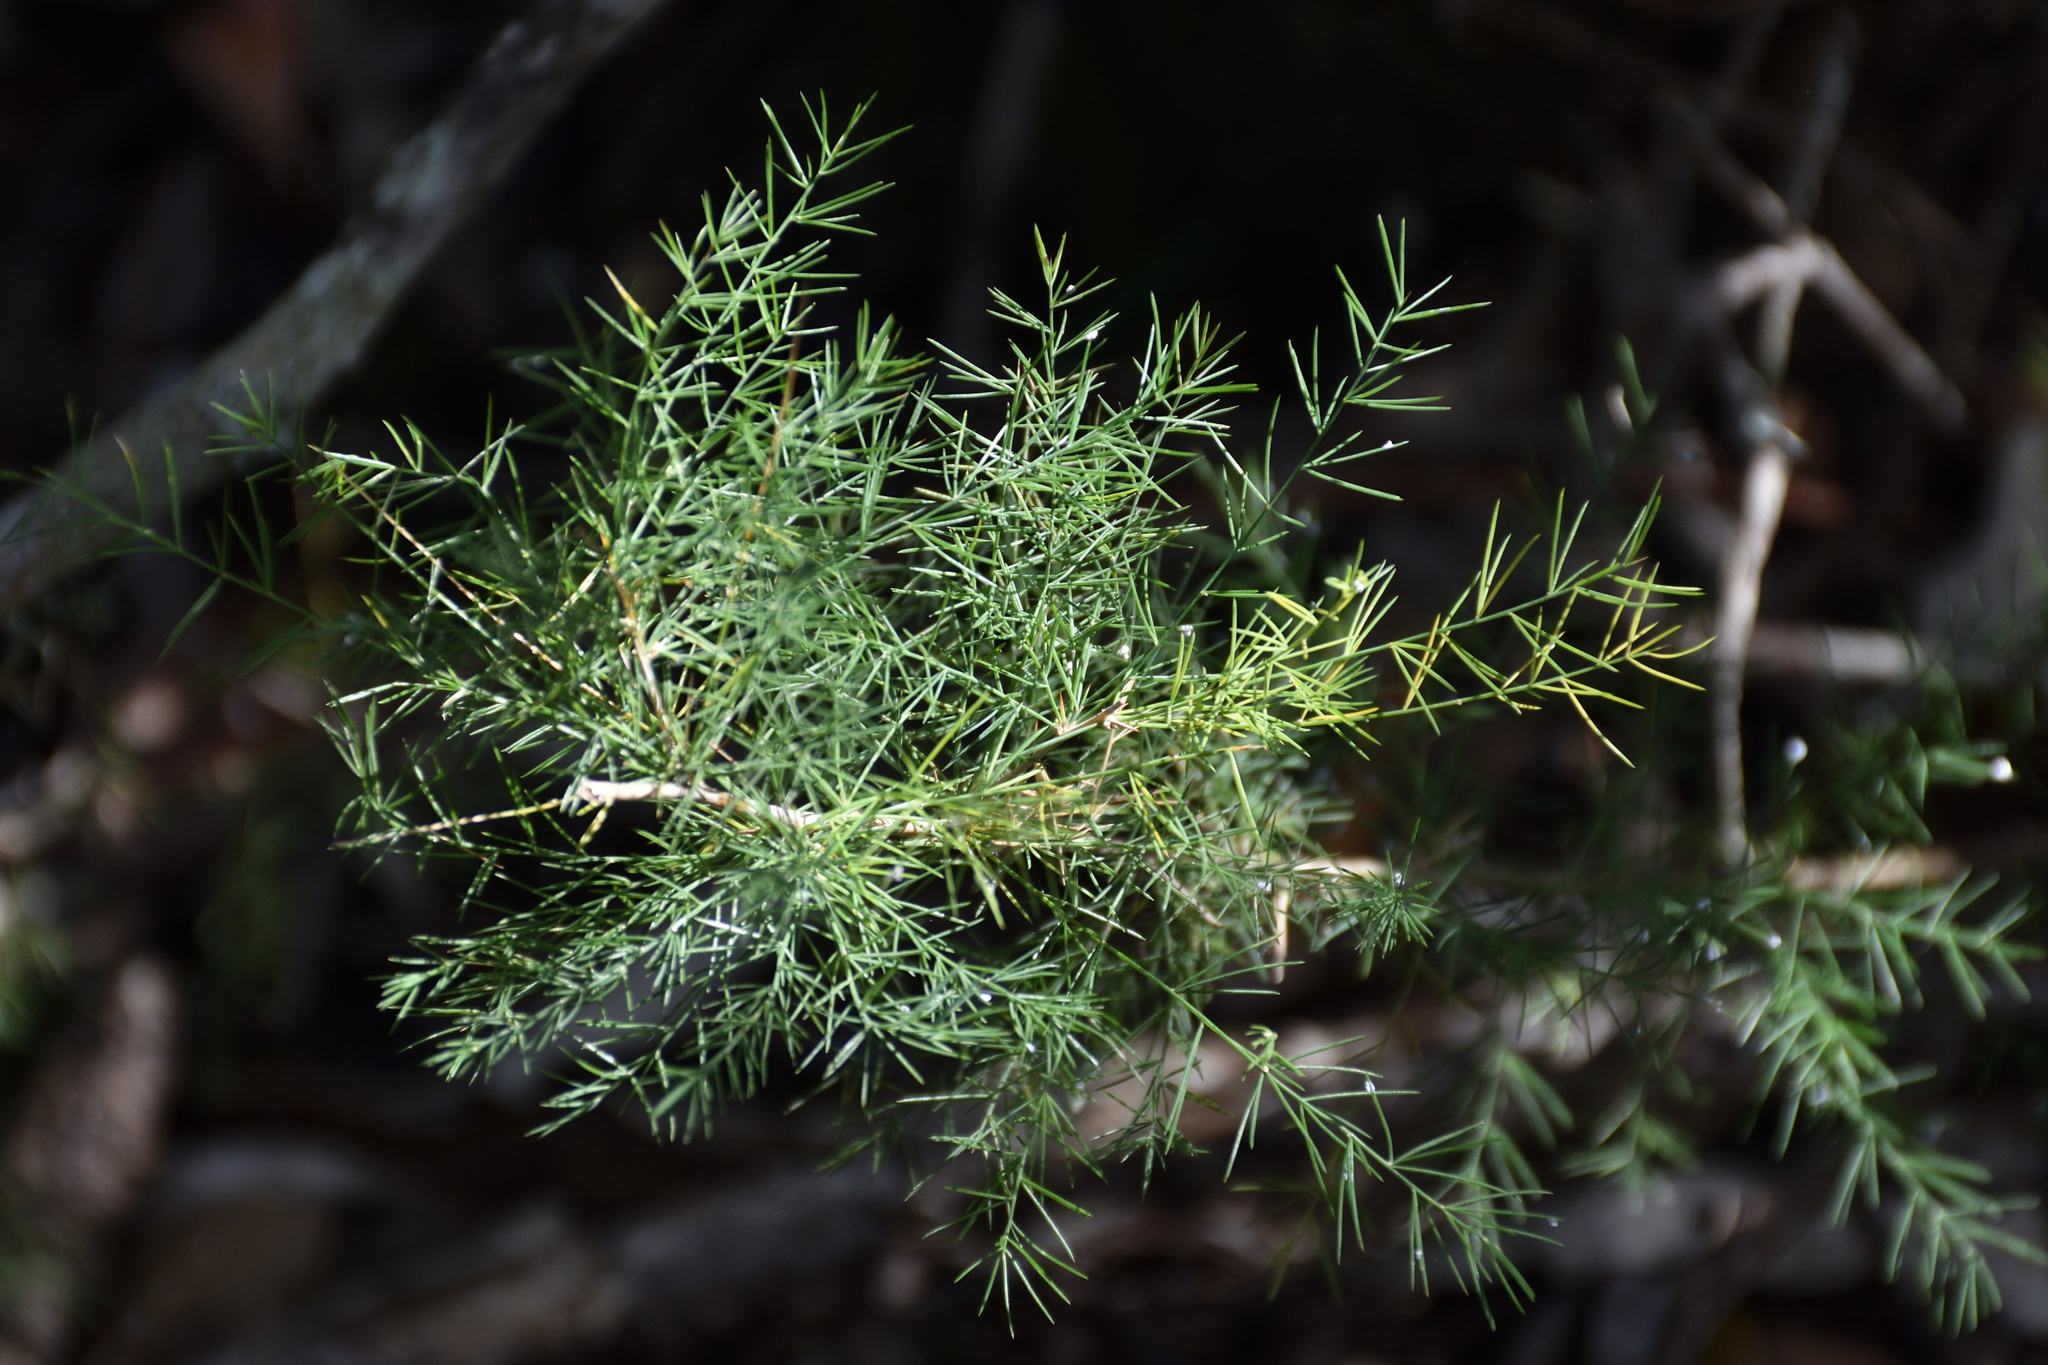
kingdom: Plantae
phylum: Tracheophyta
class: Liliopsida
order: Asparagales
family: Asparagaceae
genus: Asparagus
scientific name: Asparagus setaceus
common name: Common asparagus fern
